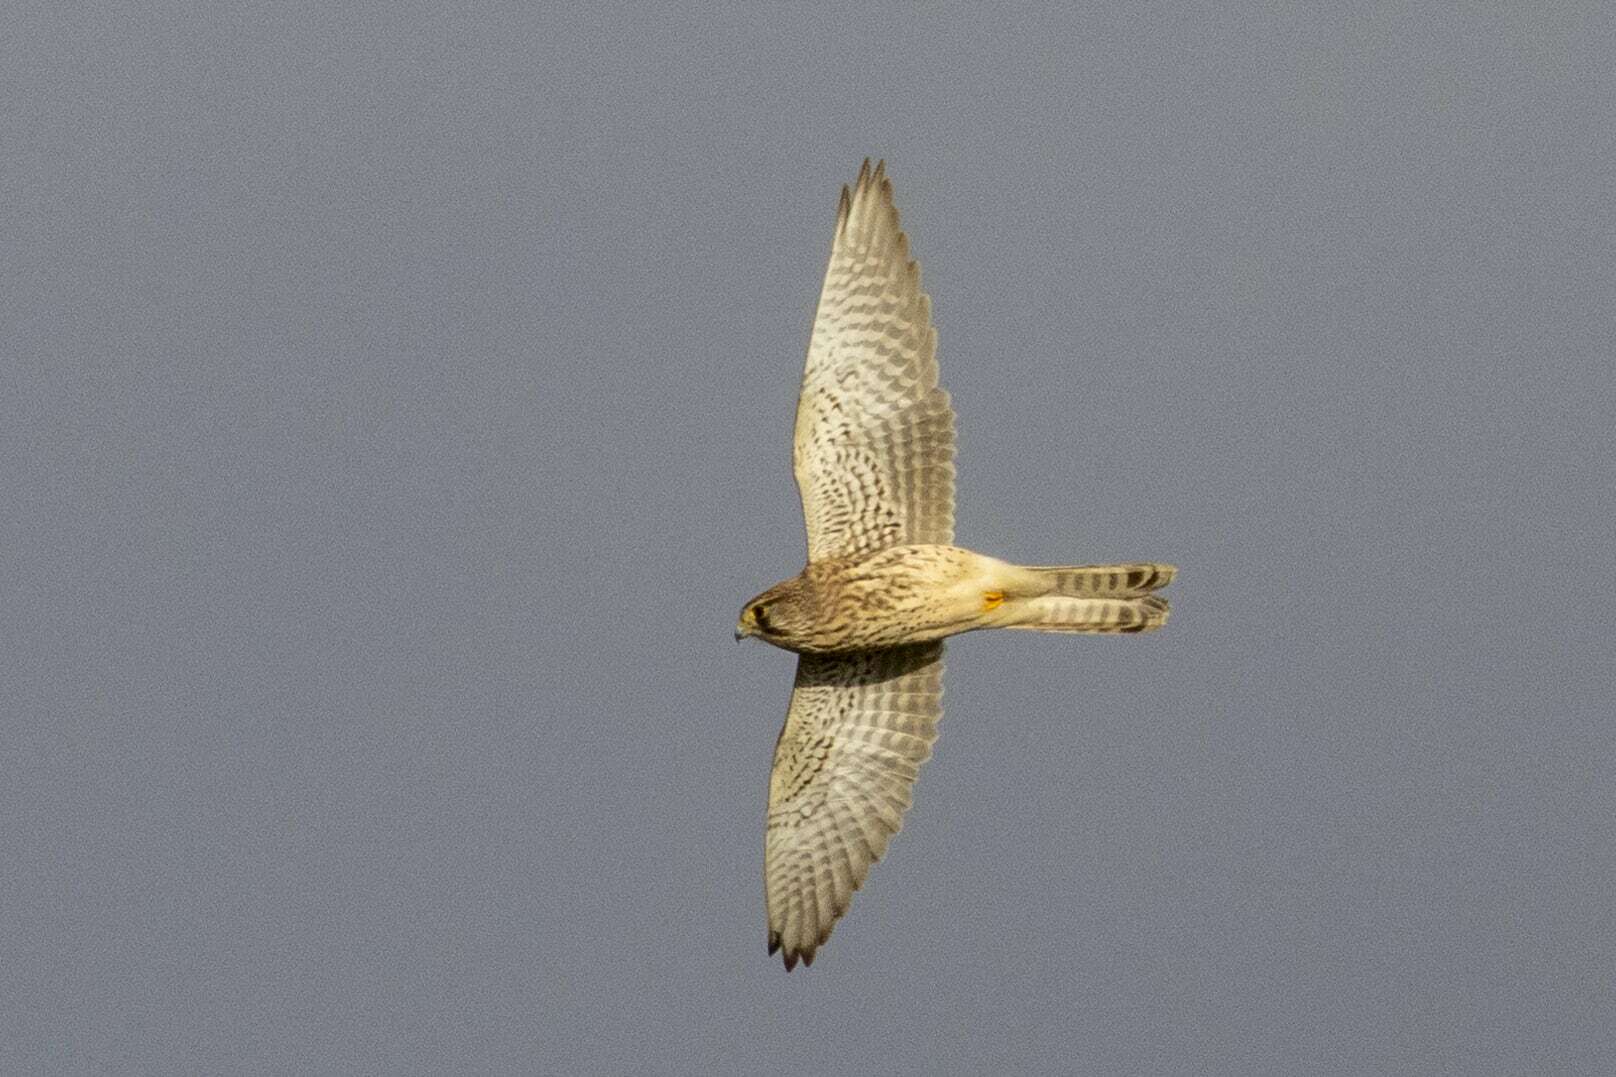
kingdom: Animalia
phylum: Chordata
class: Aves
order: Falconiformes
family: Falconidae
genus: Falco
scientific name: Falco tinnunculus
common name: Common kestrel
